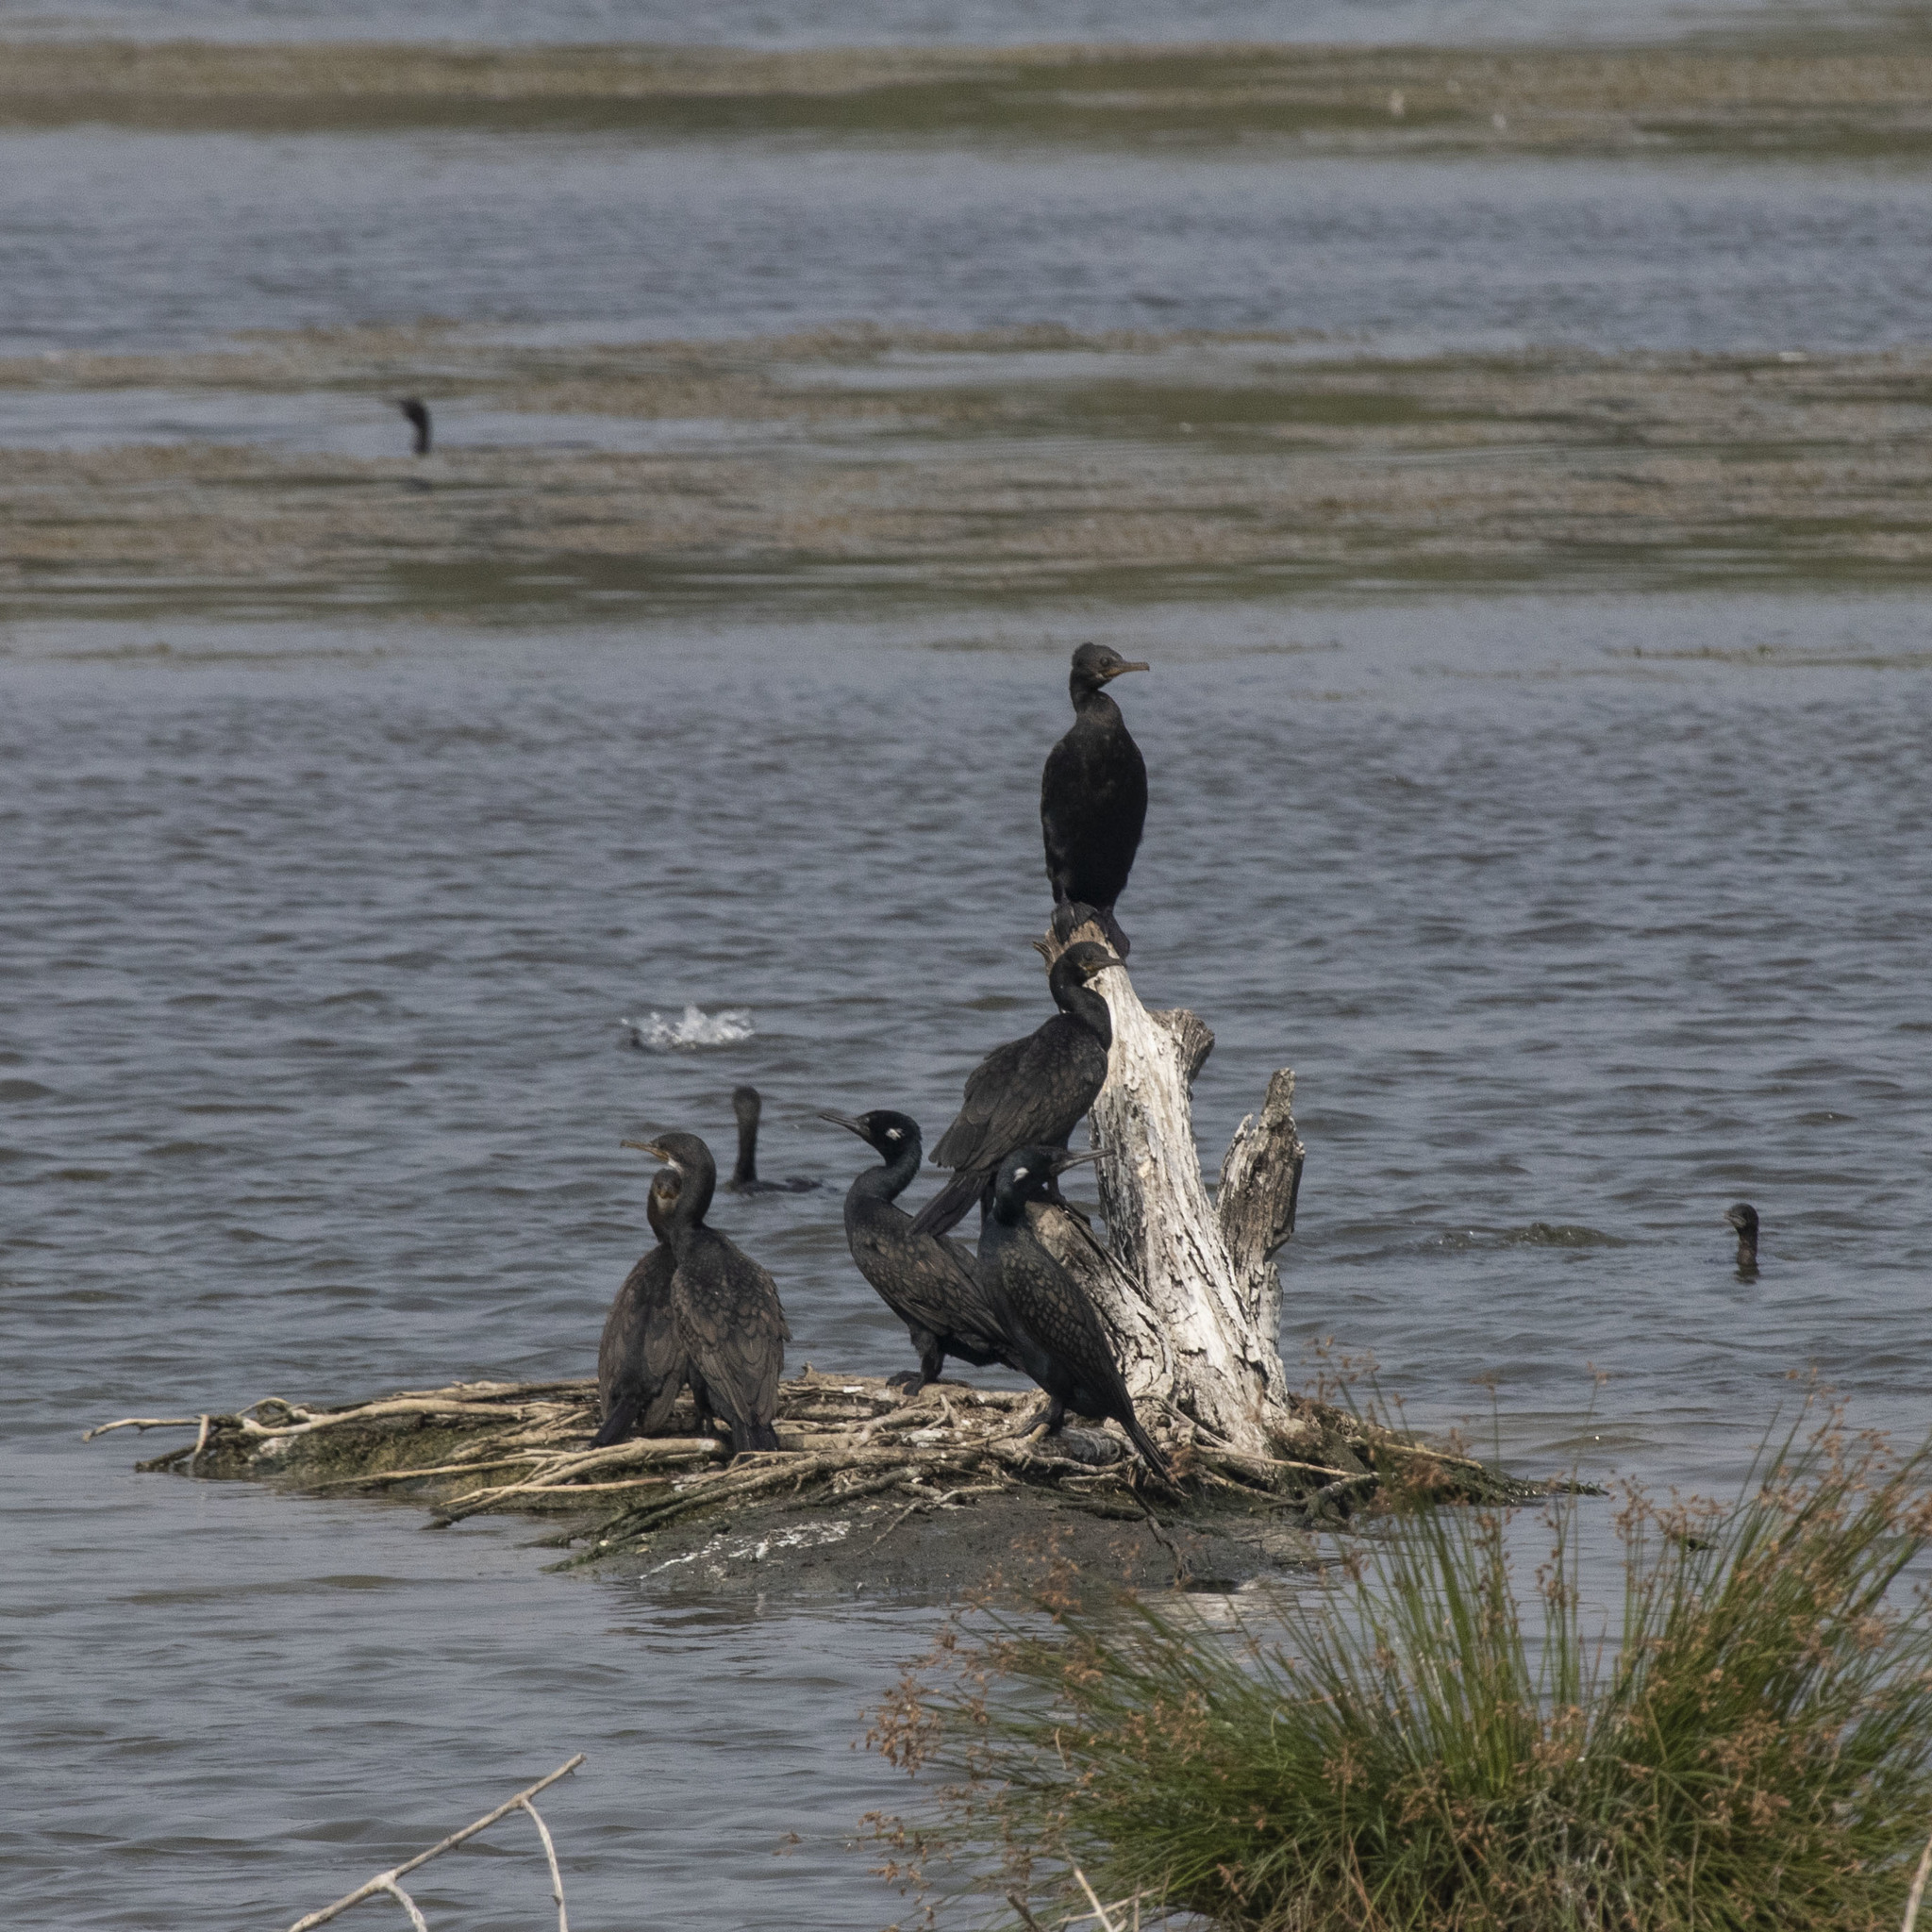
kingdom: Animalia
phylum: Chordata
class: Aves
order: Suliformes
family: Phalacrocoracidae
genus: Phalacrocorax
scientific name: Phalacrocorax fuscicollis
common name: Indian cormorant
